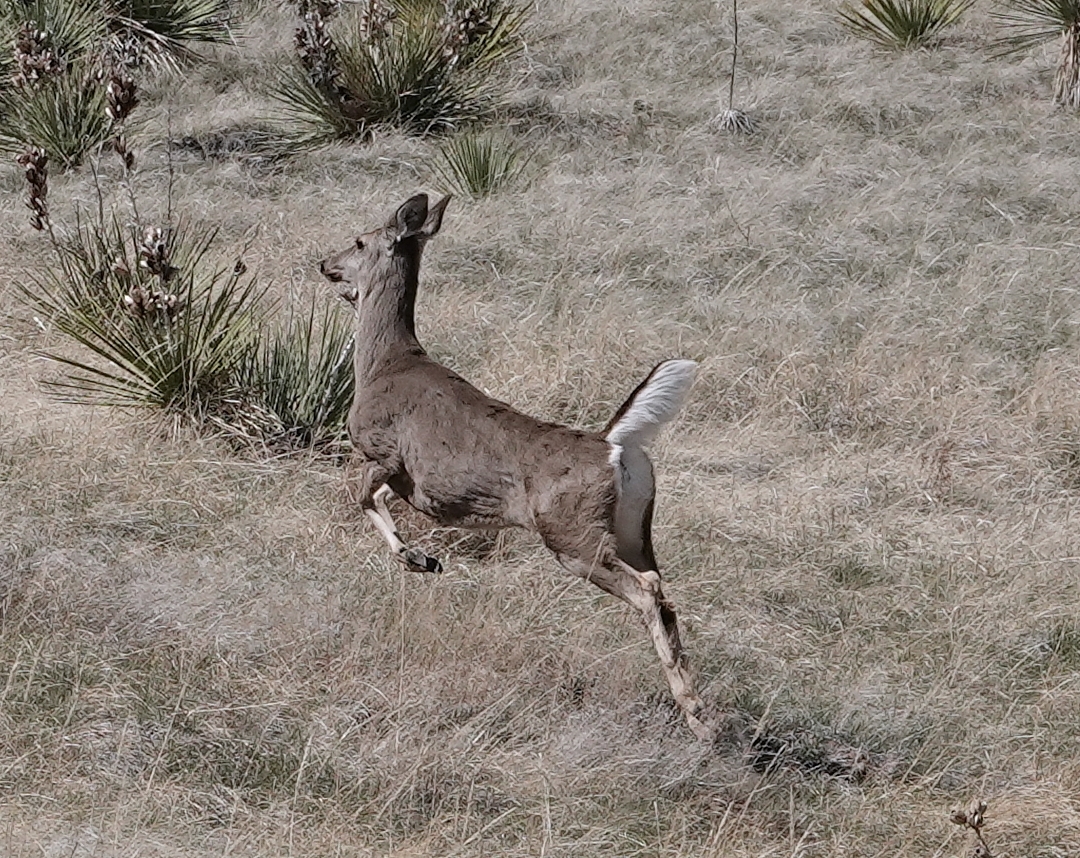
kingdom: Animalia
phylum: Chordata
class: Mammalia
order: Artiodactyla
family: Cervidae
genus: Odocoileus
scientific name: Odocoileus virginianus
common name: White-tailed deer
